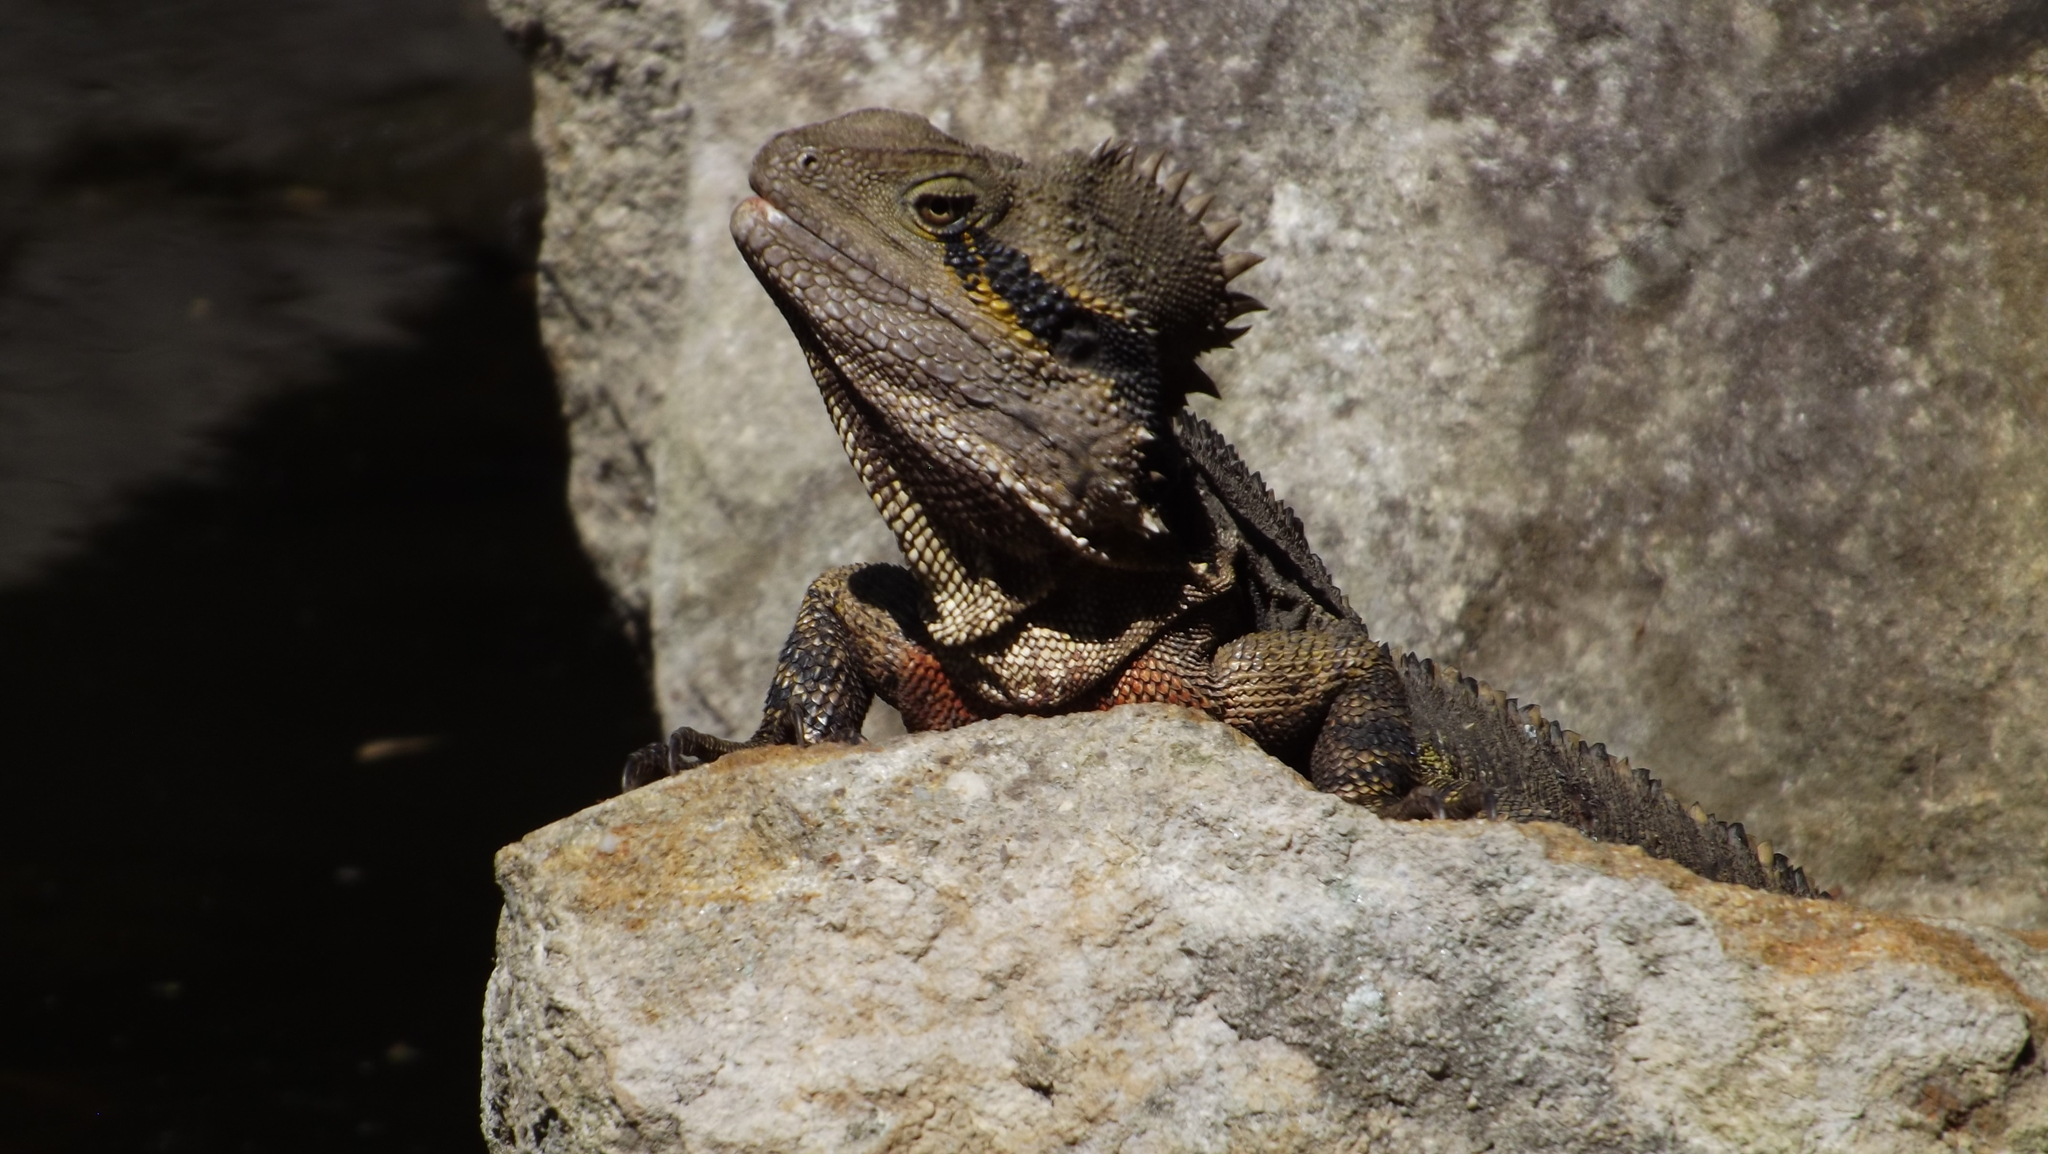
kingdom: Animalia
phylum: Chordata
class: Squamata
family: Agamidae
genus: Intellagama
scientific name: Intellagama lesueurii
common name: Eastern water dragon
